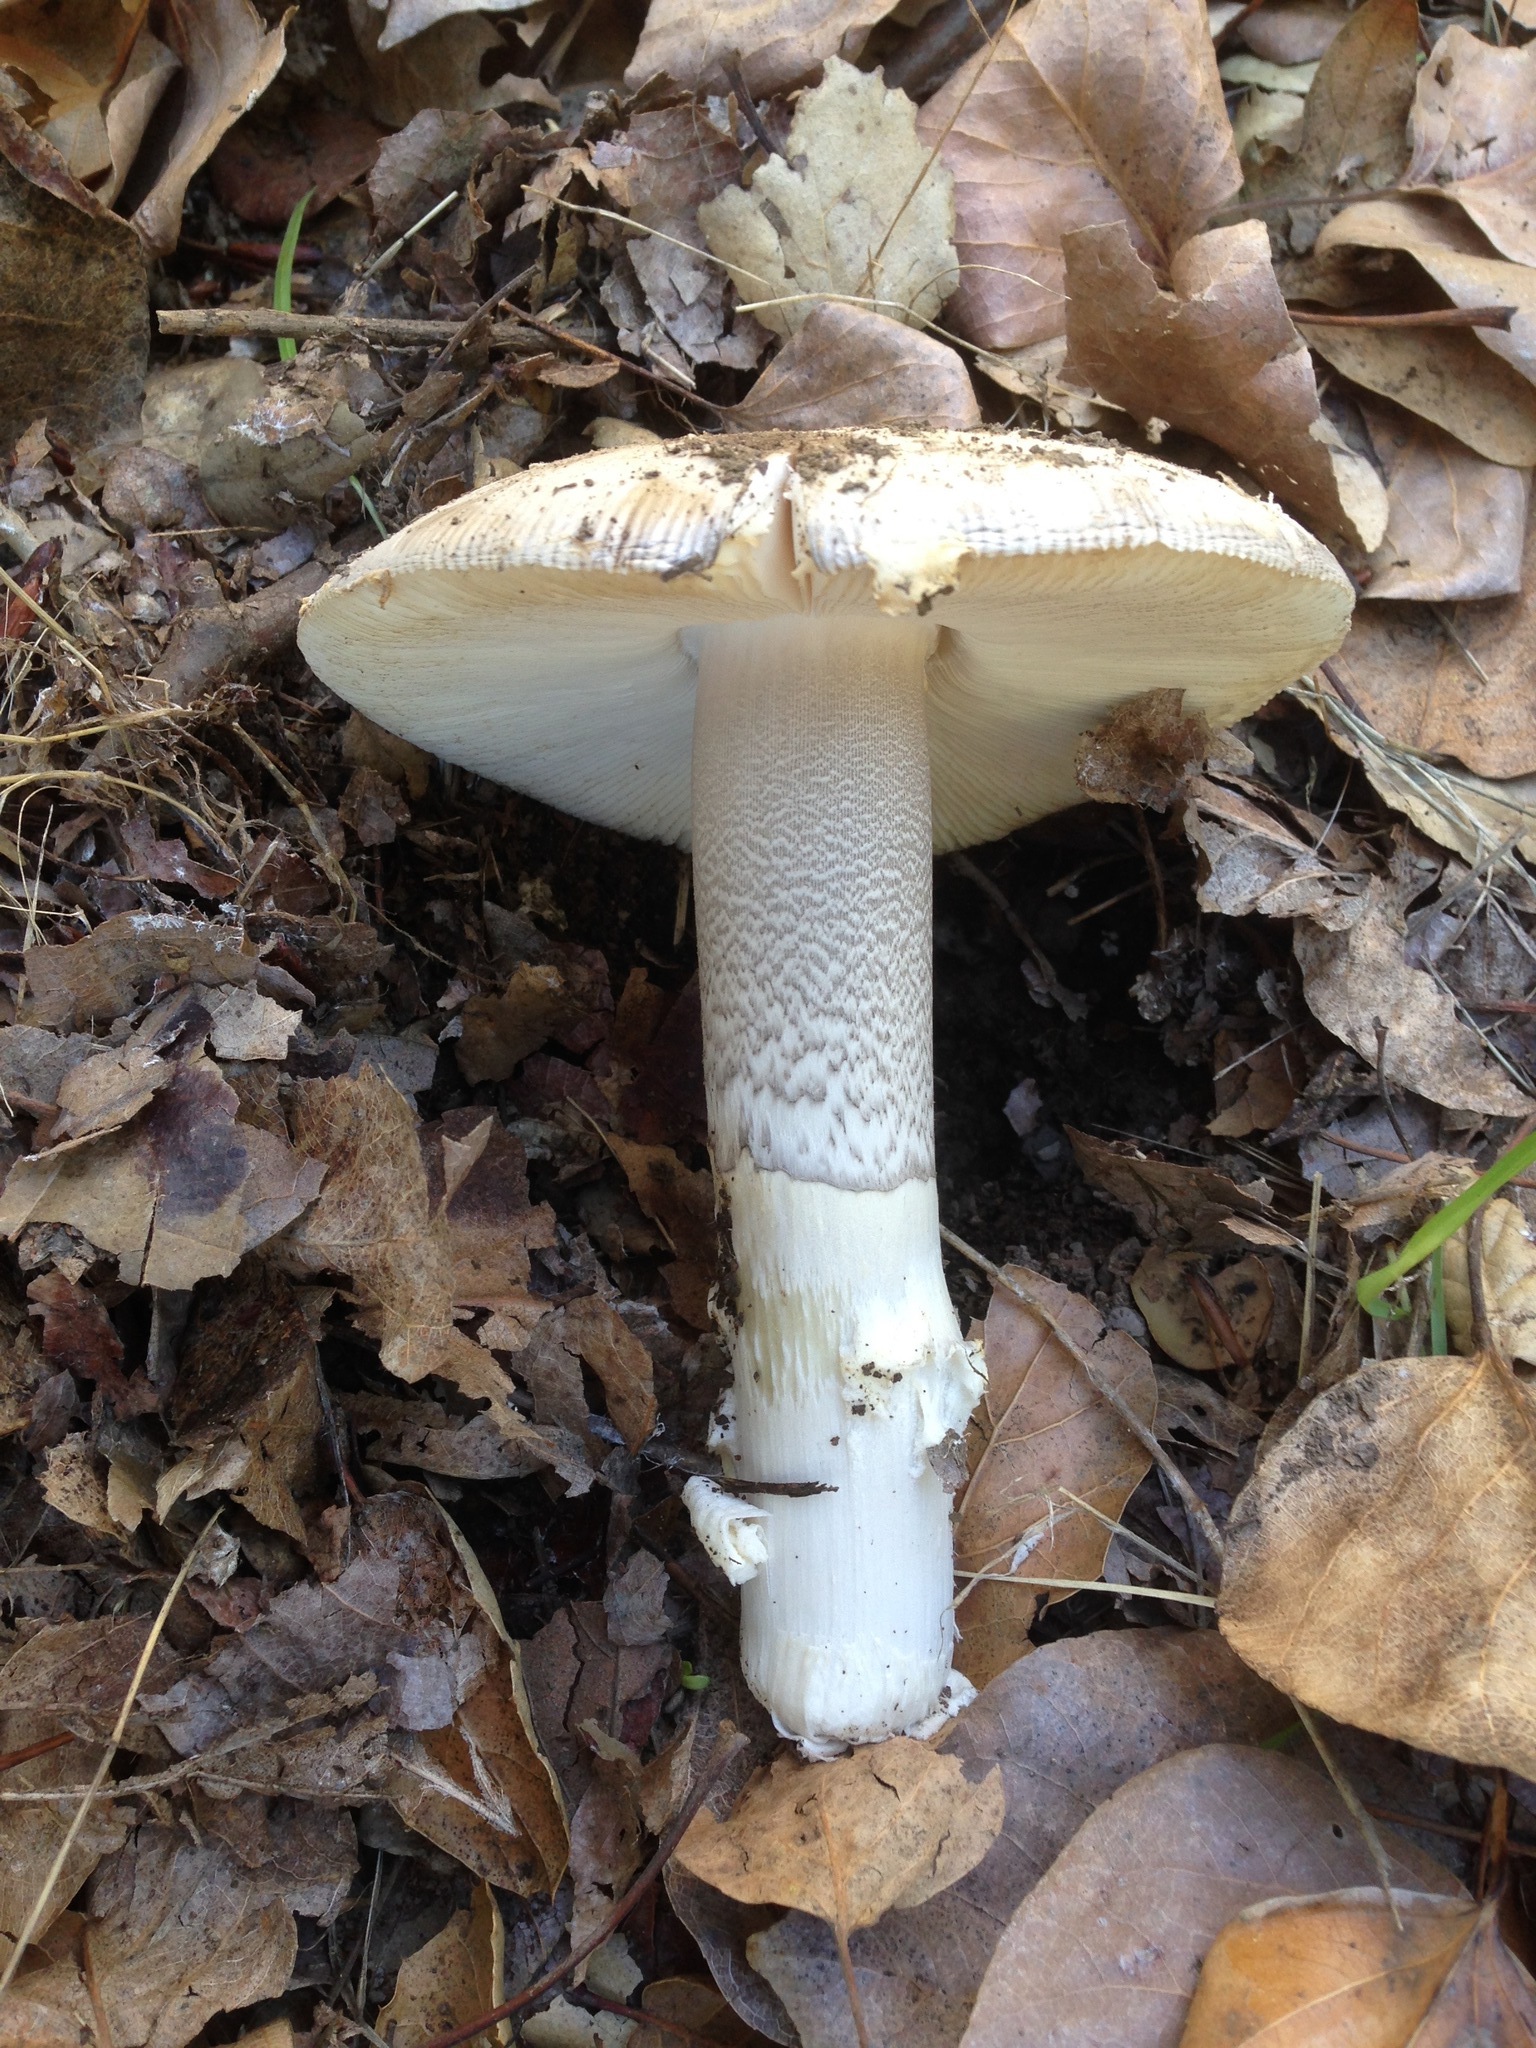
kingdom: Fungi
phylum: Basidiomycota
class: Agaricomycetes
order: Agaricales
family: Amanitaceae
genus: Amanita
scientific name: Amanita protecta
